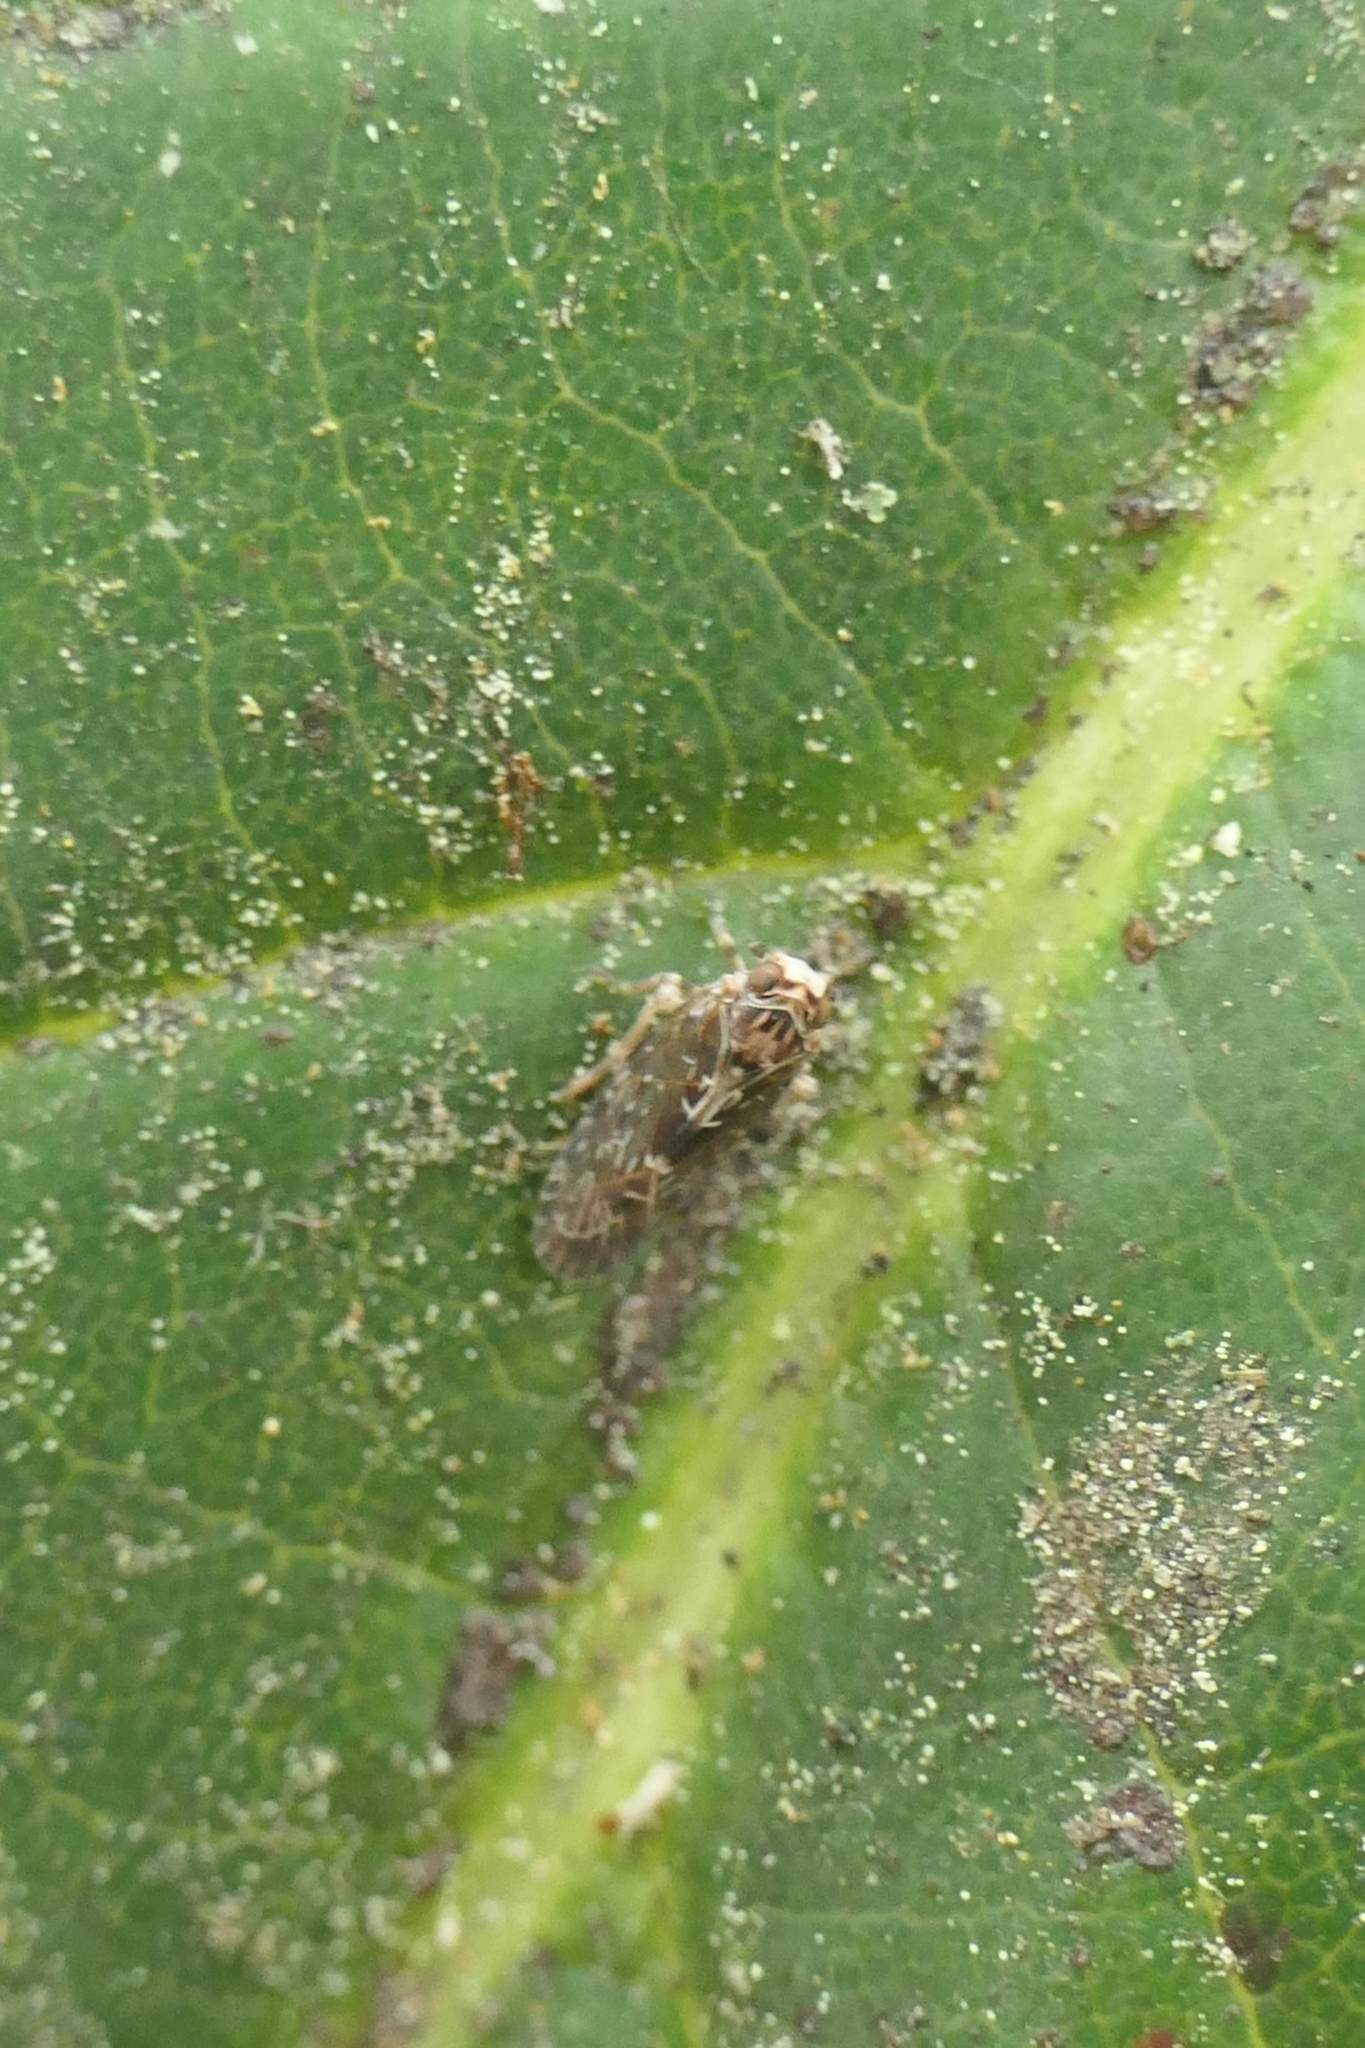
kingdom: Animalia
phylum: Arthropoda
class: Insecta
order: Hemiptera
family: Achilidae
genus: Agandecca
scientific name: Agandecca annectens
